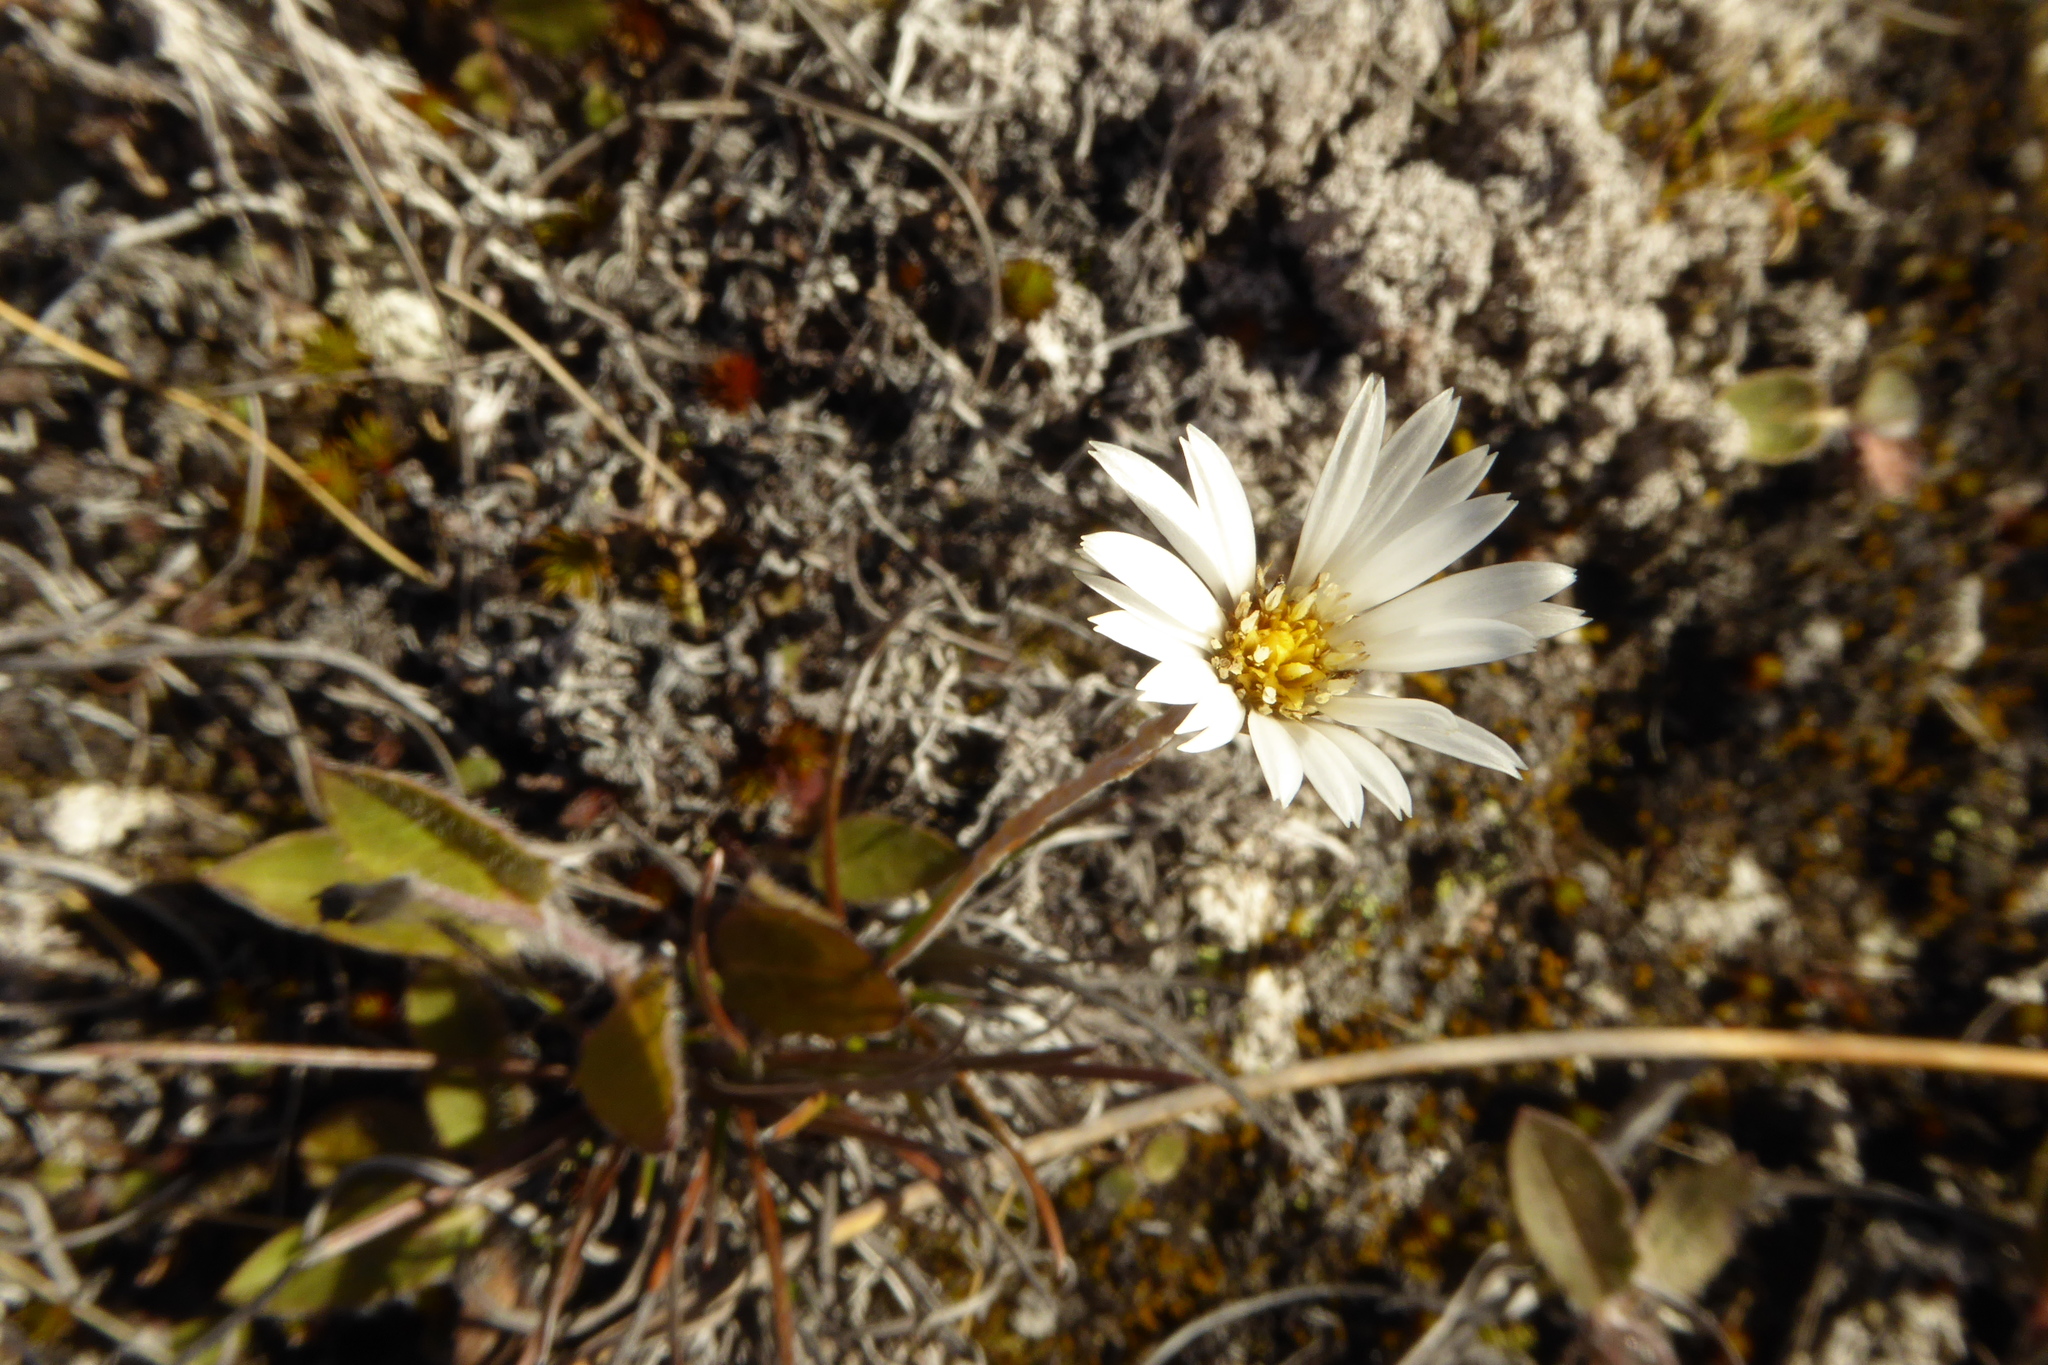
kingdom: Plantae
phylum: Tracheophyta
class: Magnoliopsida
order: Asterales
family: Asteraceae
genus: Celmisia
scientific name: Celmisia gracilenta
